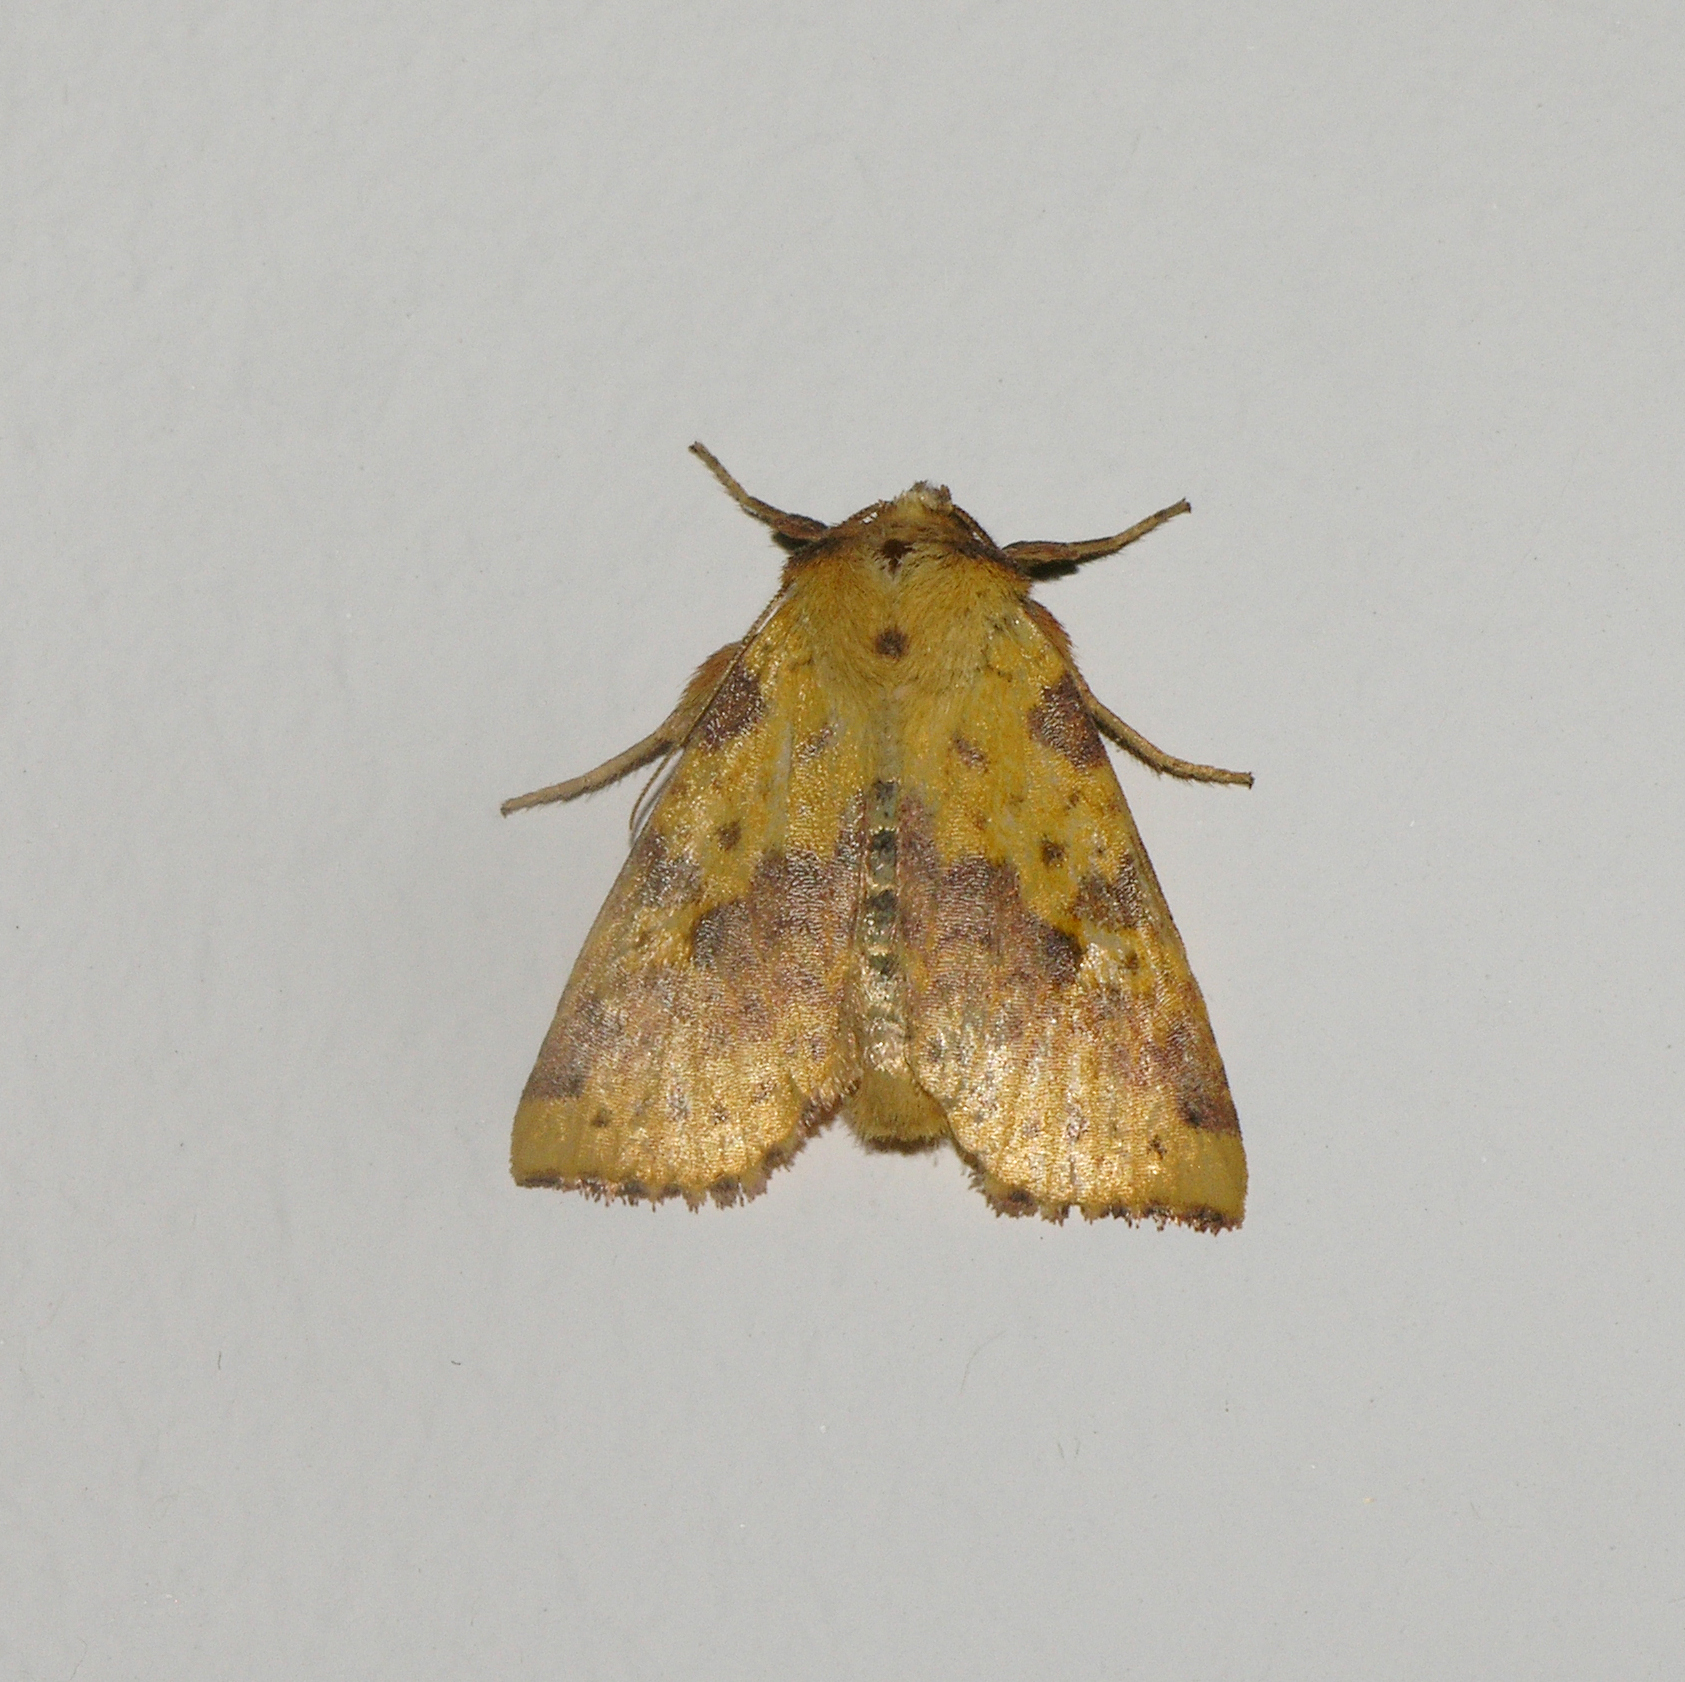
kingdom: Animalia
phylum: Arthropoda
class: Insecta
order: Lepidoptera
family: Noctuidae
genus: Xanthia
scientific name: Xanthia togata
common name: Pink-barred sallow
